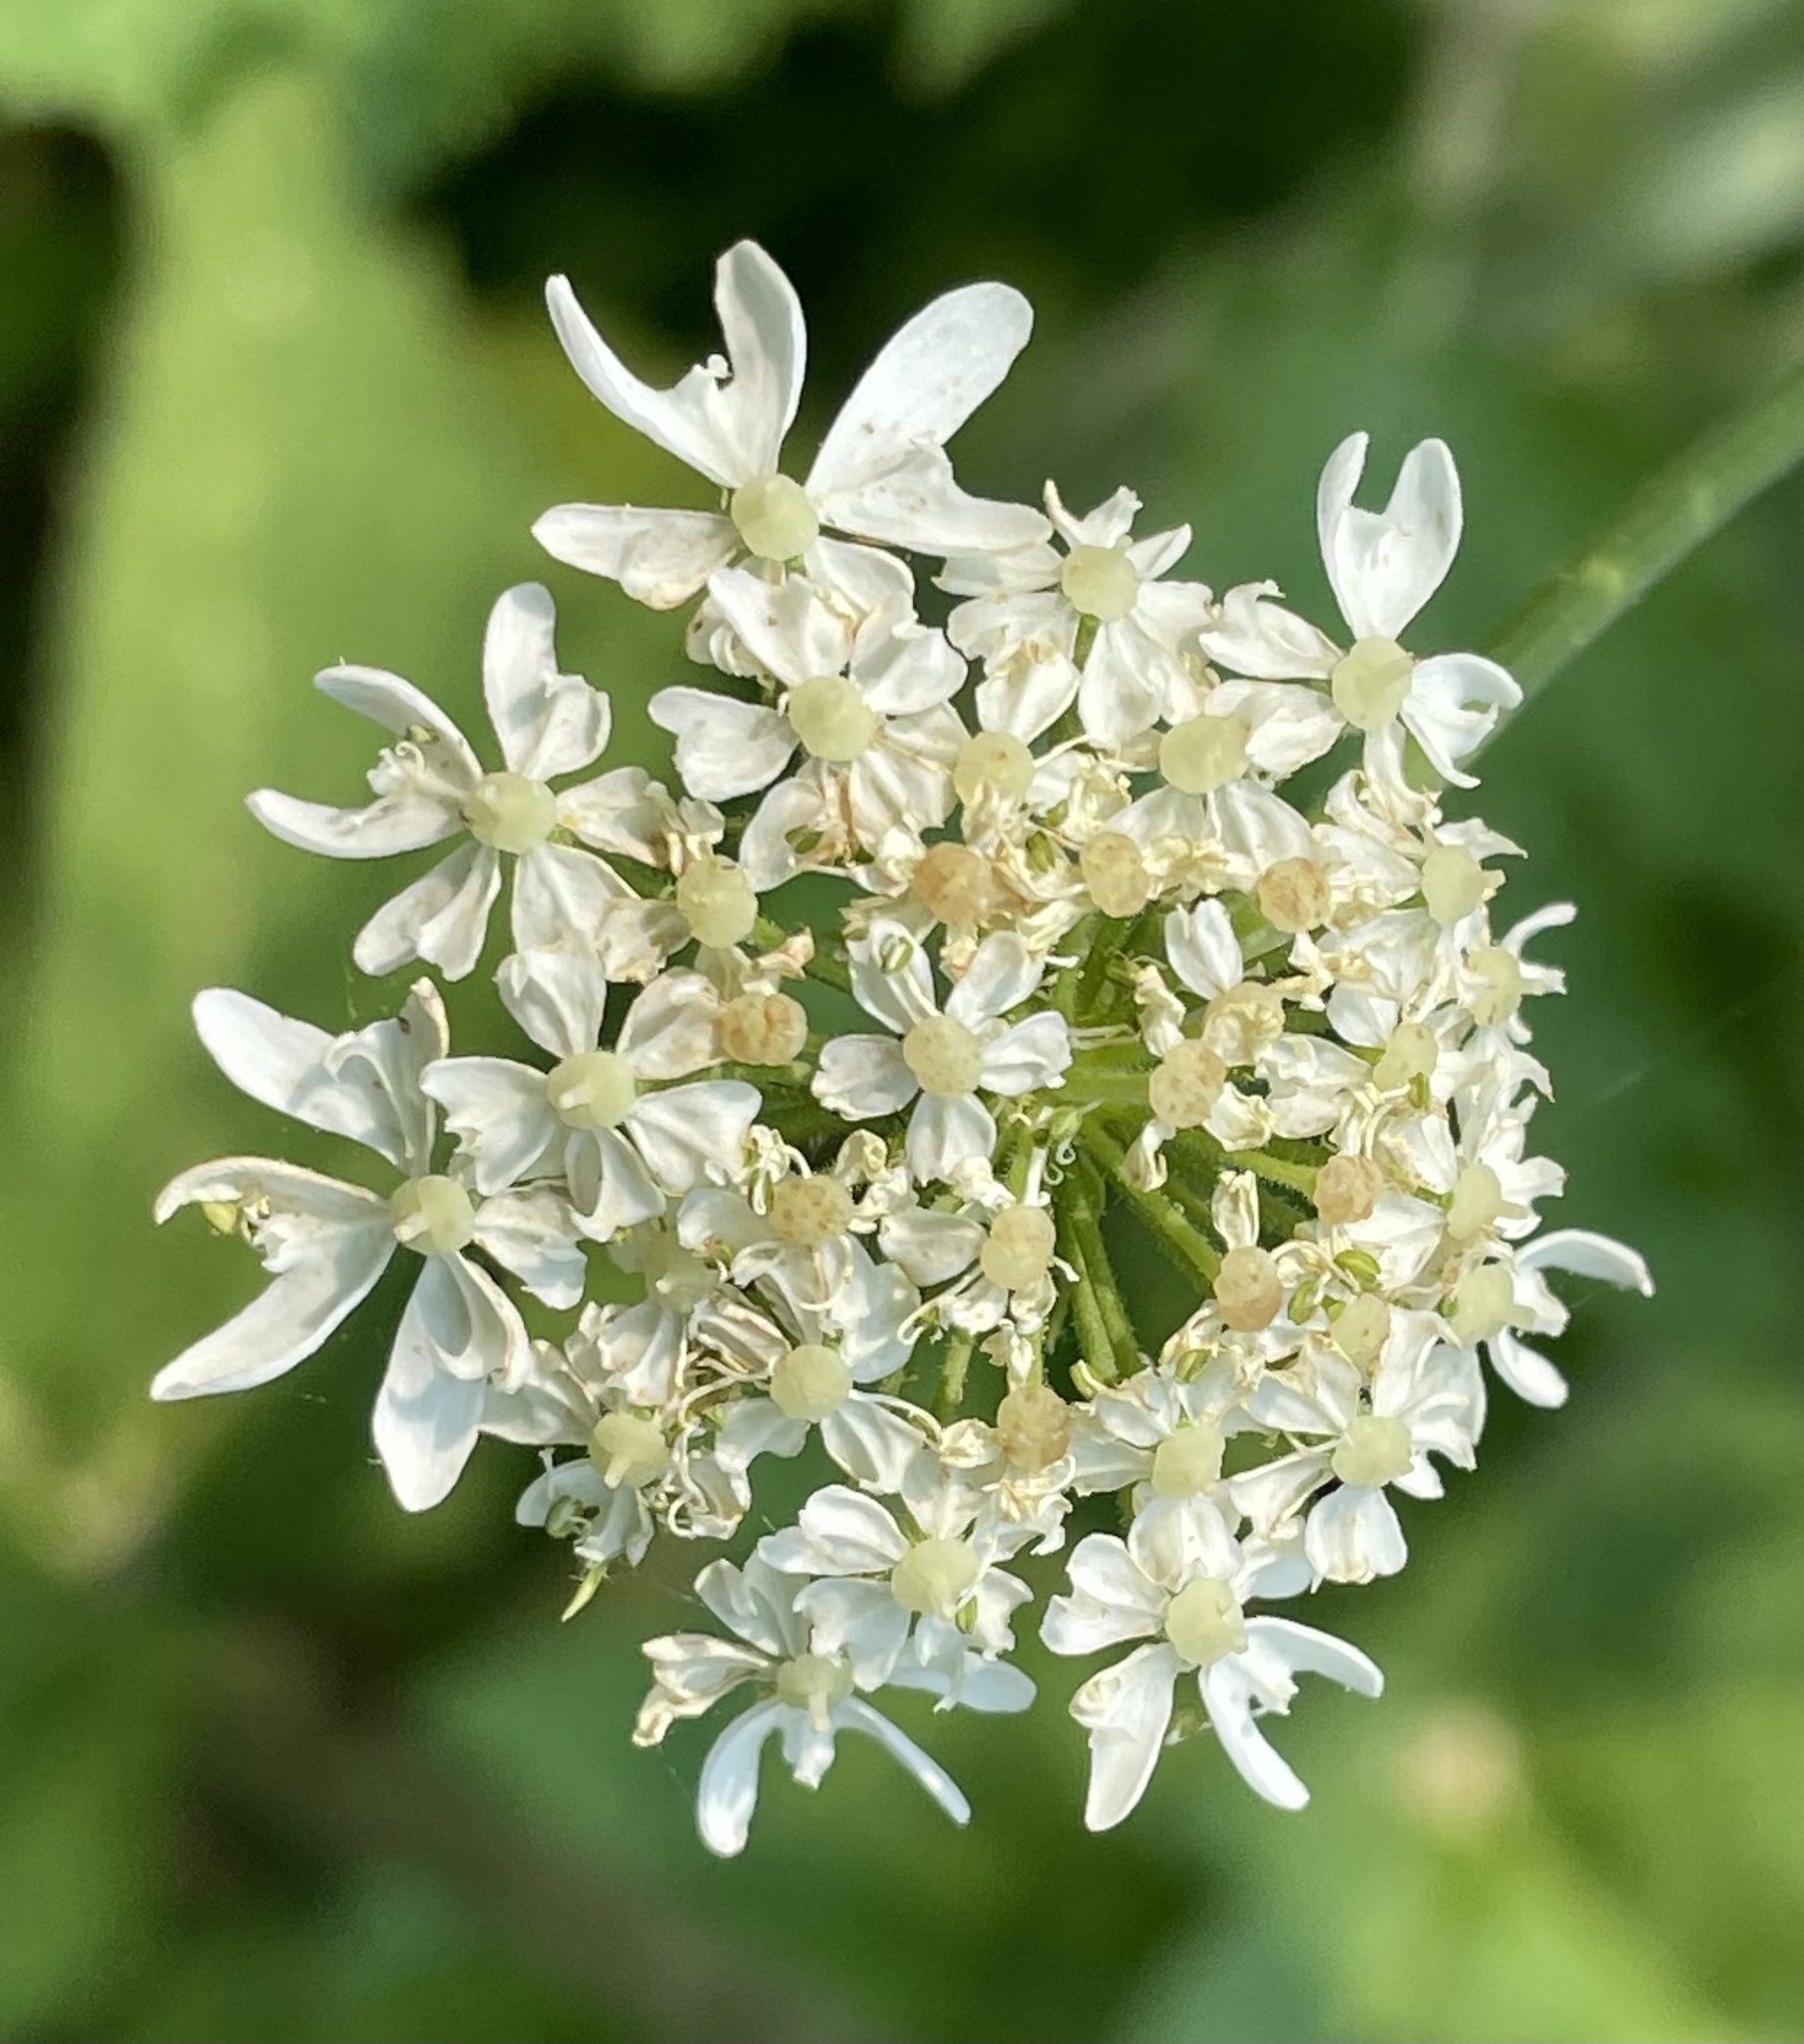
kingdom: Plantae
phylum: Tracheophyta
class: Magnoliopsida
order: Apiales
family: Apiaceae
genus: Heracleum
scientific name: Heracleum maximum
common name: American cow parsnip
